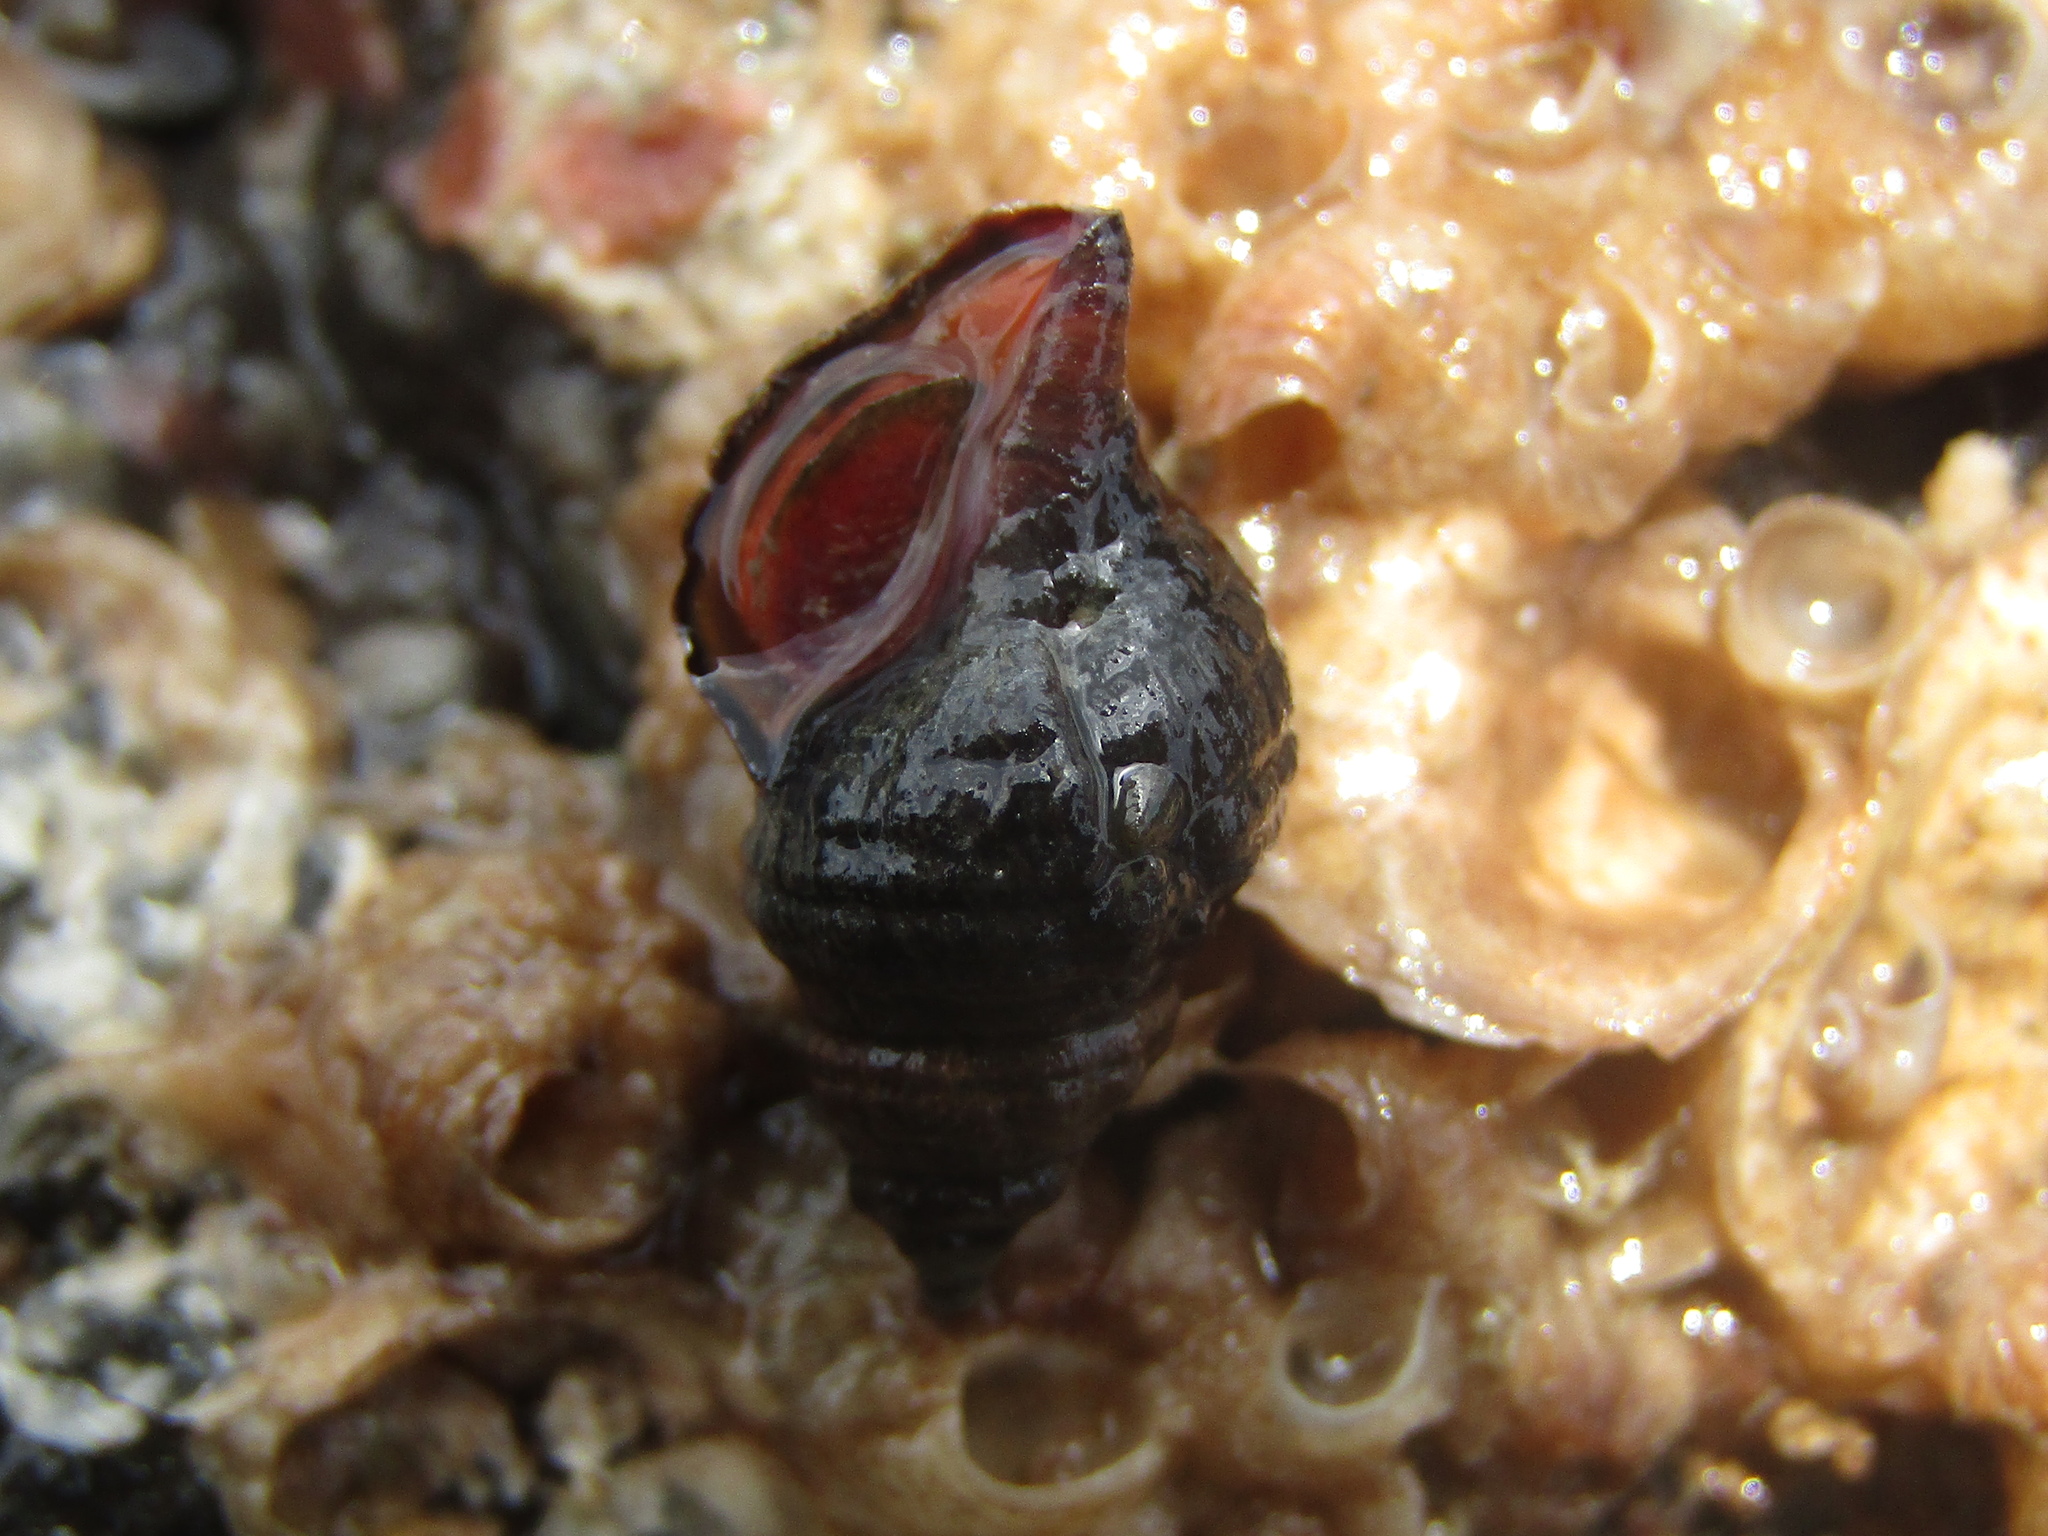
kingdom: Animalia
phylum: Mollusca
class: Gastropoda
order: Neogastropoda
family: Fasciolariidae
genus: Taron
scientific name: Taron dubius
